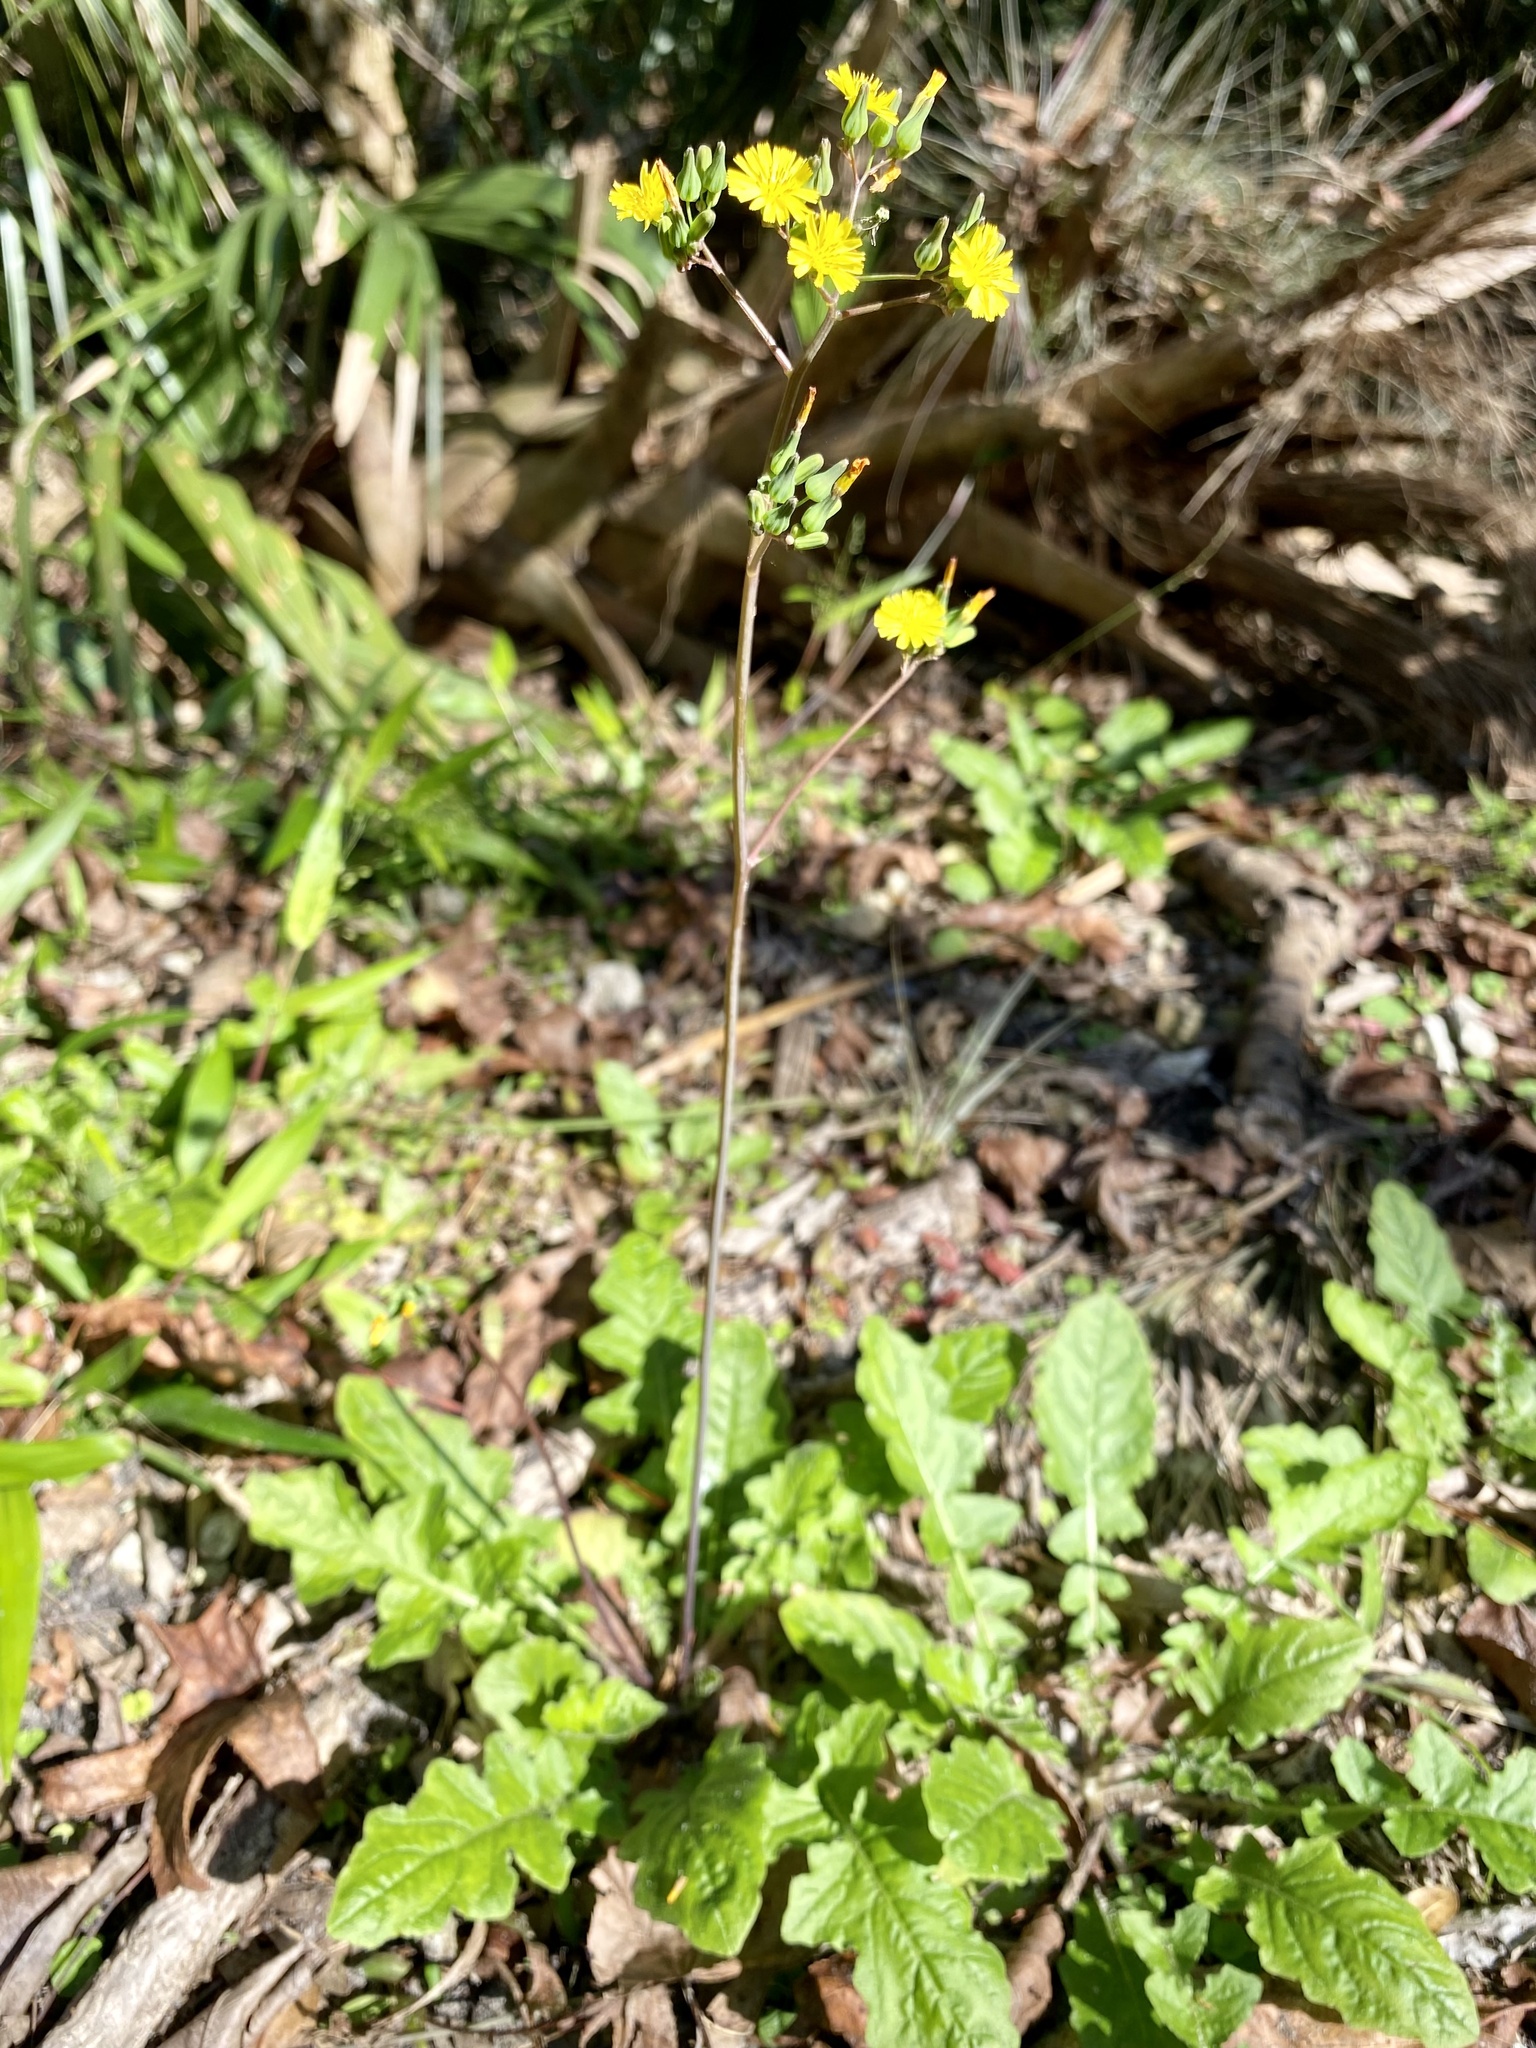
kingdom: Plantae
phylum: Tracheophyta
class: Magnoliopsida
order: Asterales
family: Asteraceae
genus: Youngia
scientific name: Youngia japonica
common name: Oriental false hawksbeard
